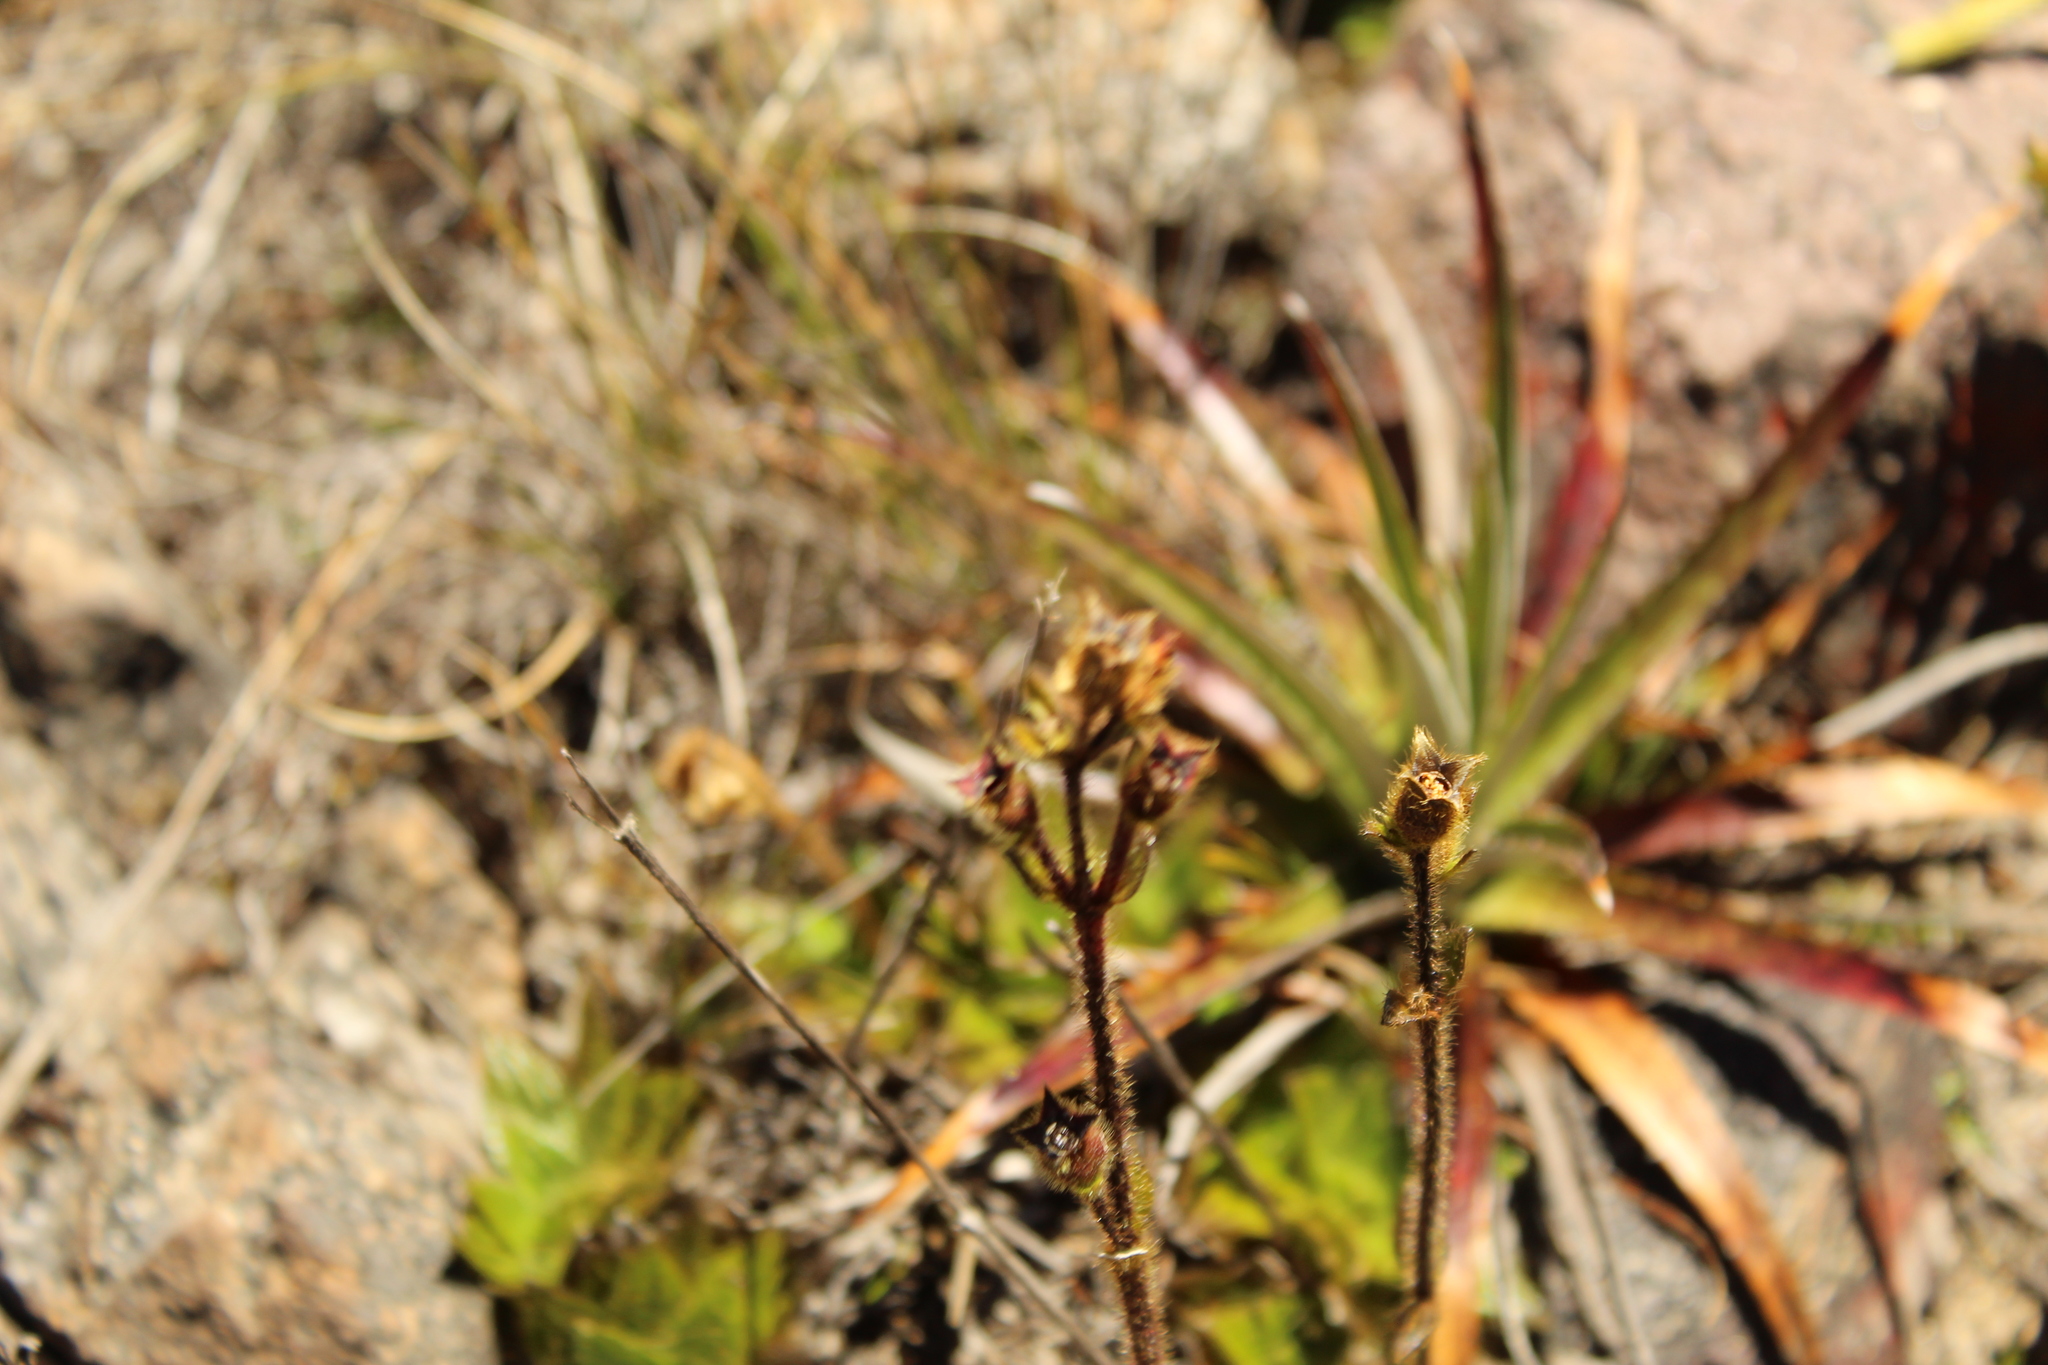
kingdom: Plantae
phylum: Tracheophyta
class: Magnoliopsida
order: Myrtales
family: Melastomataceae
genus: Castratella
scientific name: Castratella piloselloides
